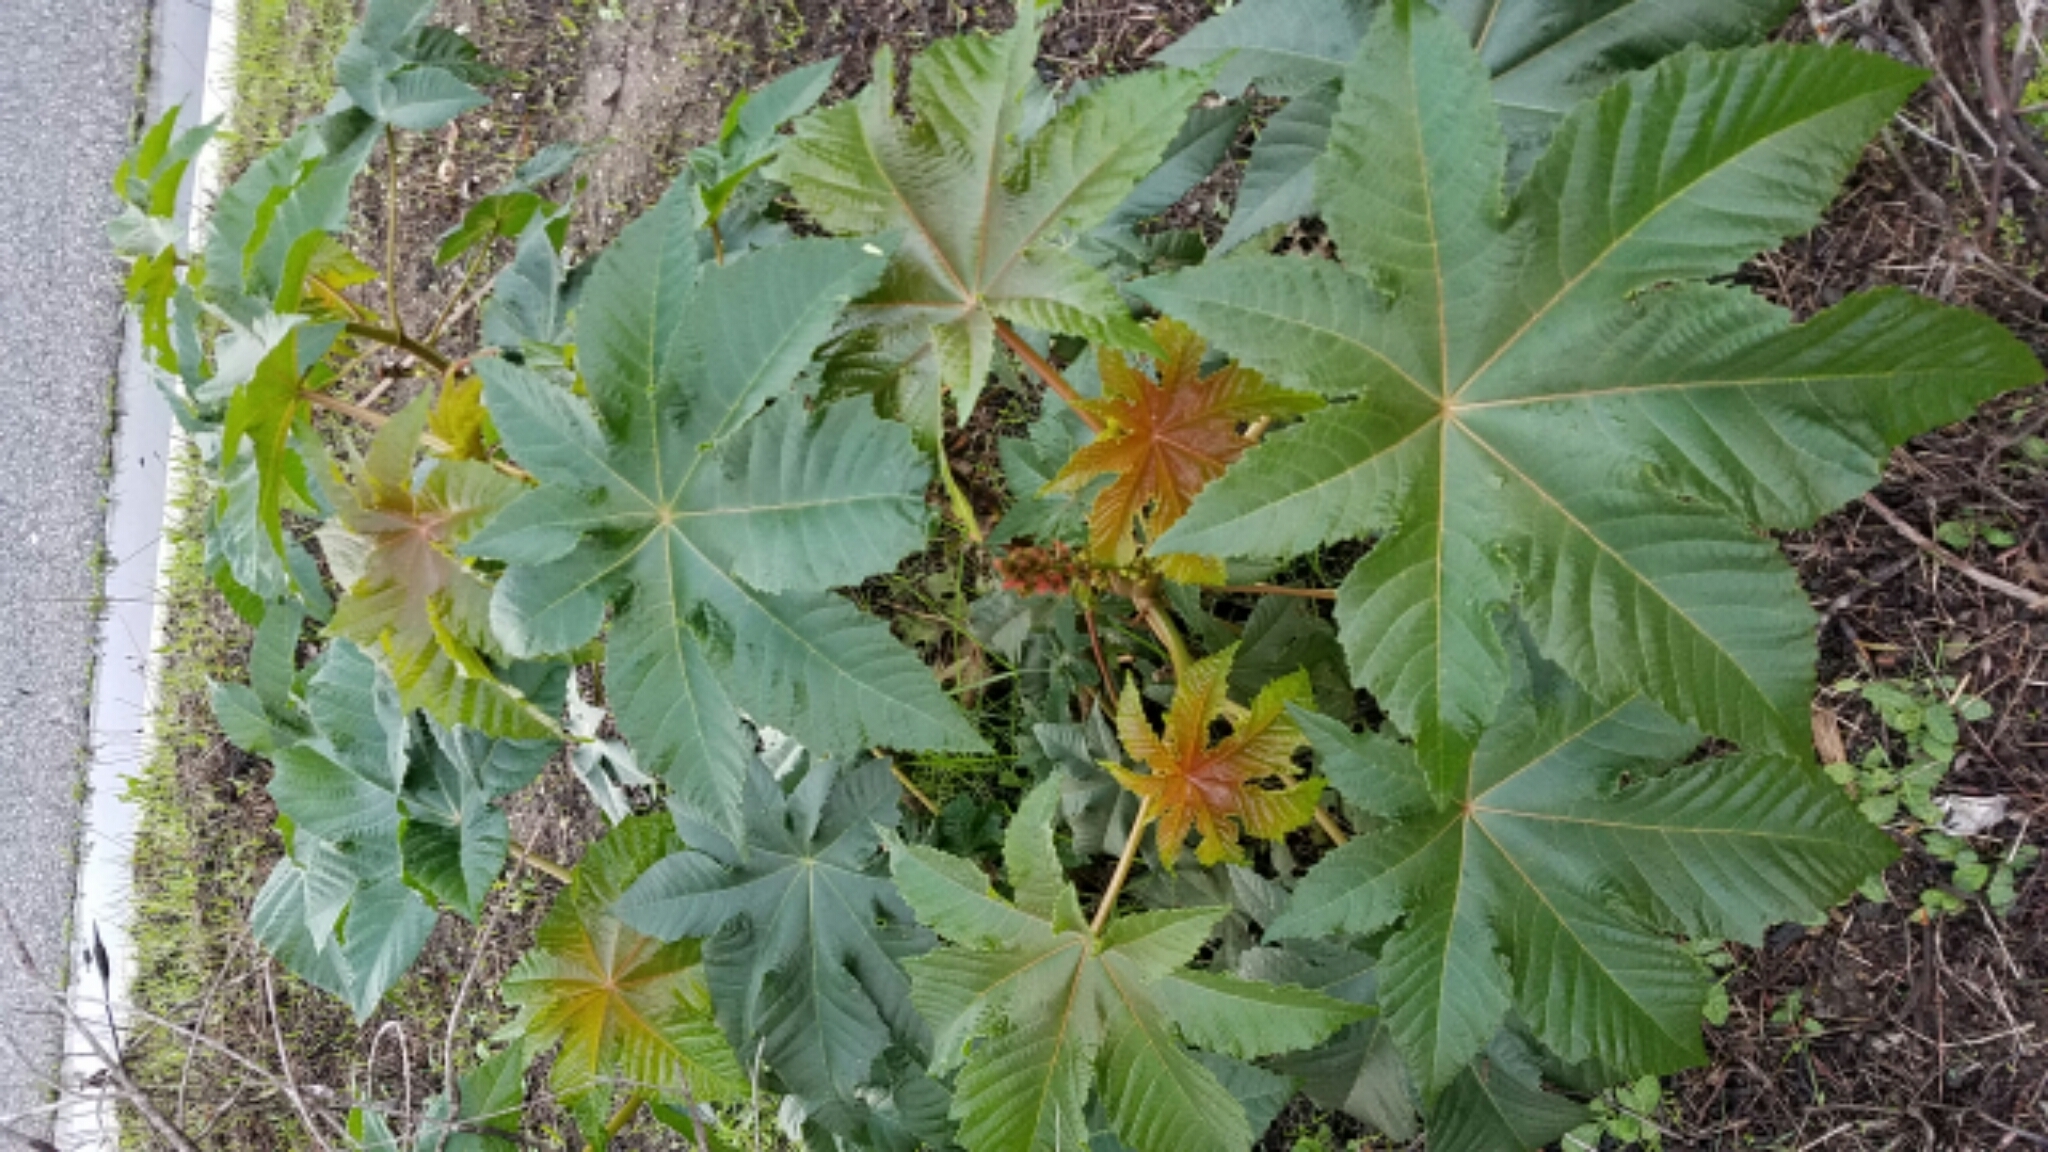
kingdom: Plantae
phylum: Tracheophyta
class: Magnoliopsida
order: Malpighiales
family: Euphorbiaceae
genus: Ricinus
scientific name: Ricinus communis
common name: Castor-oil-plant
